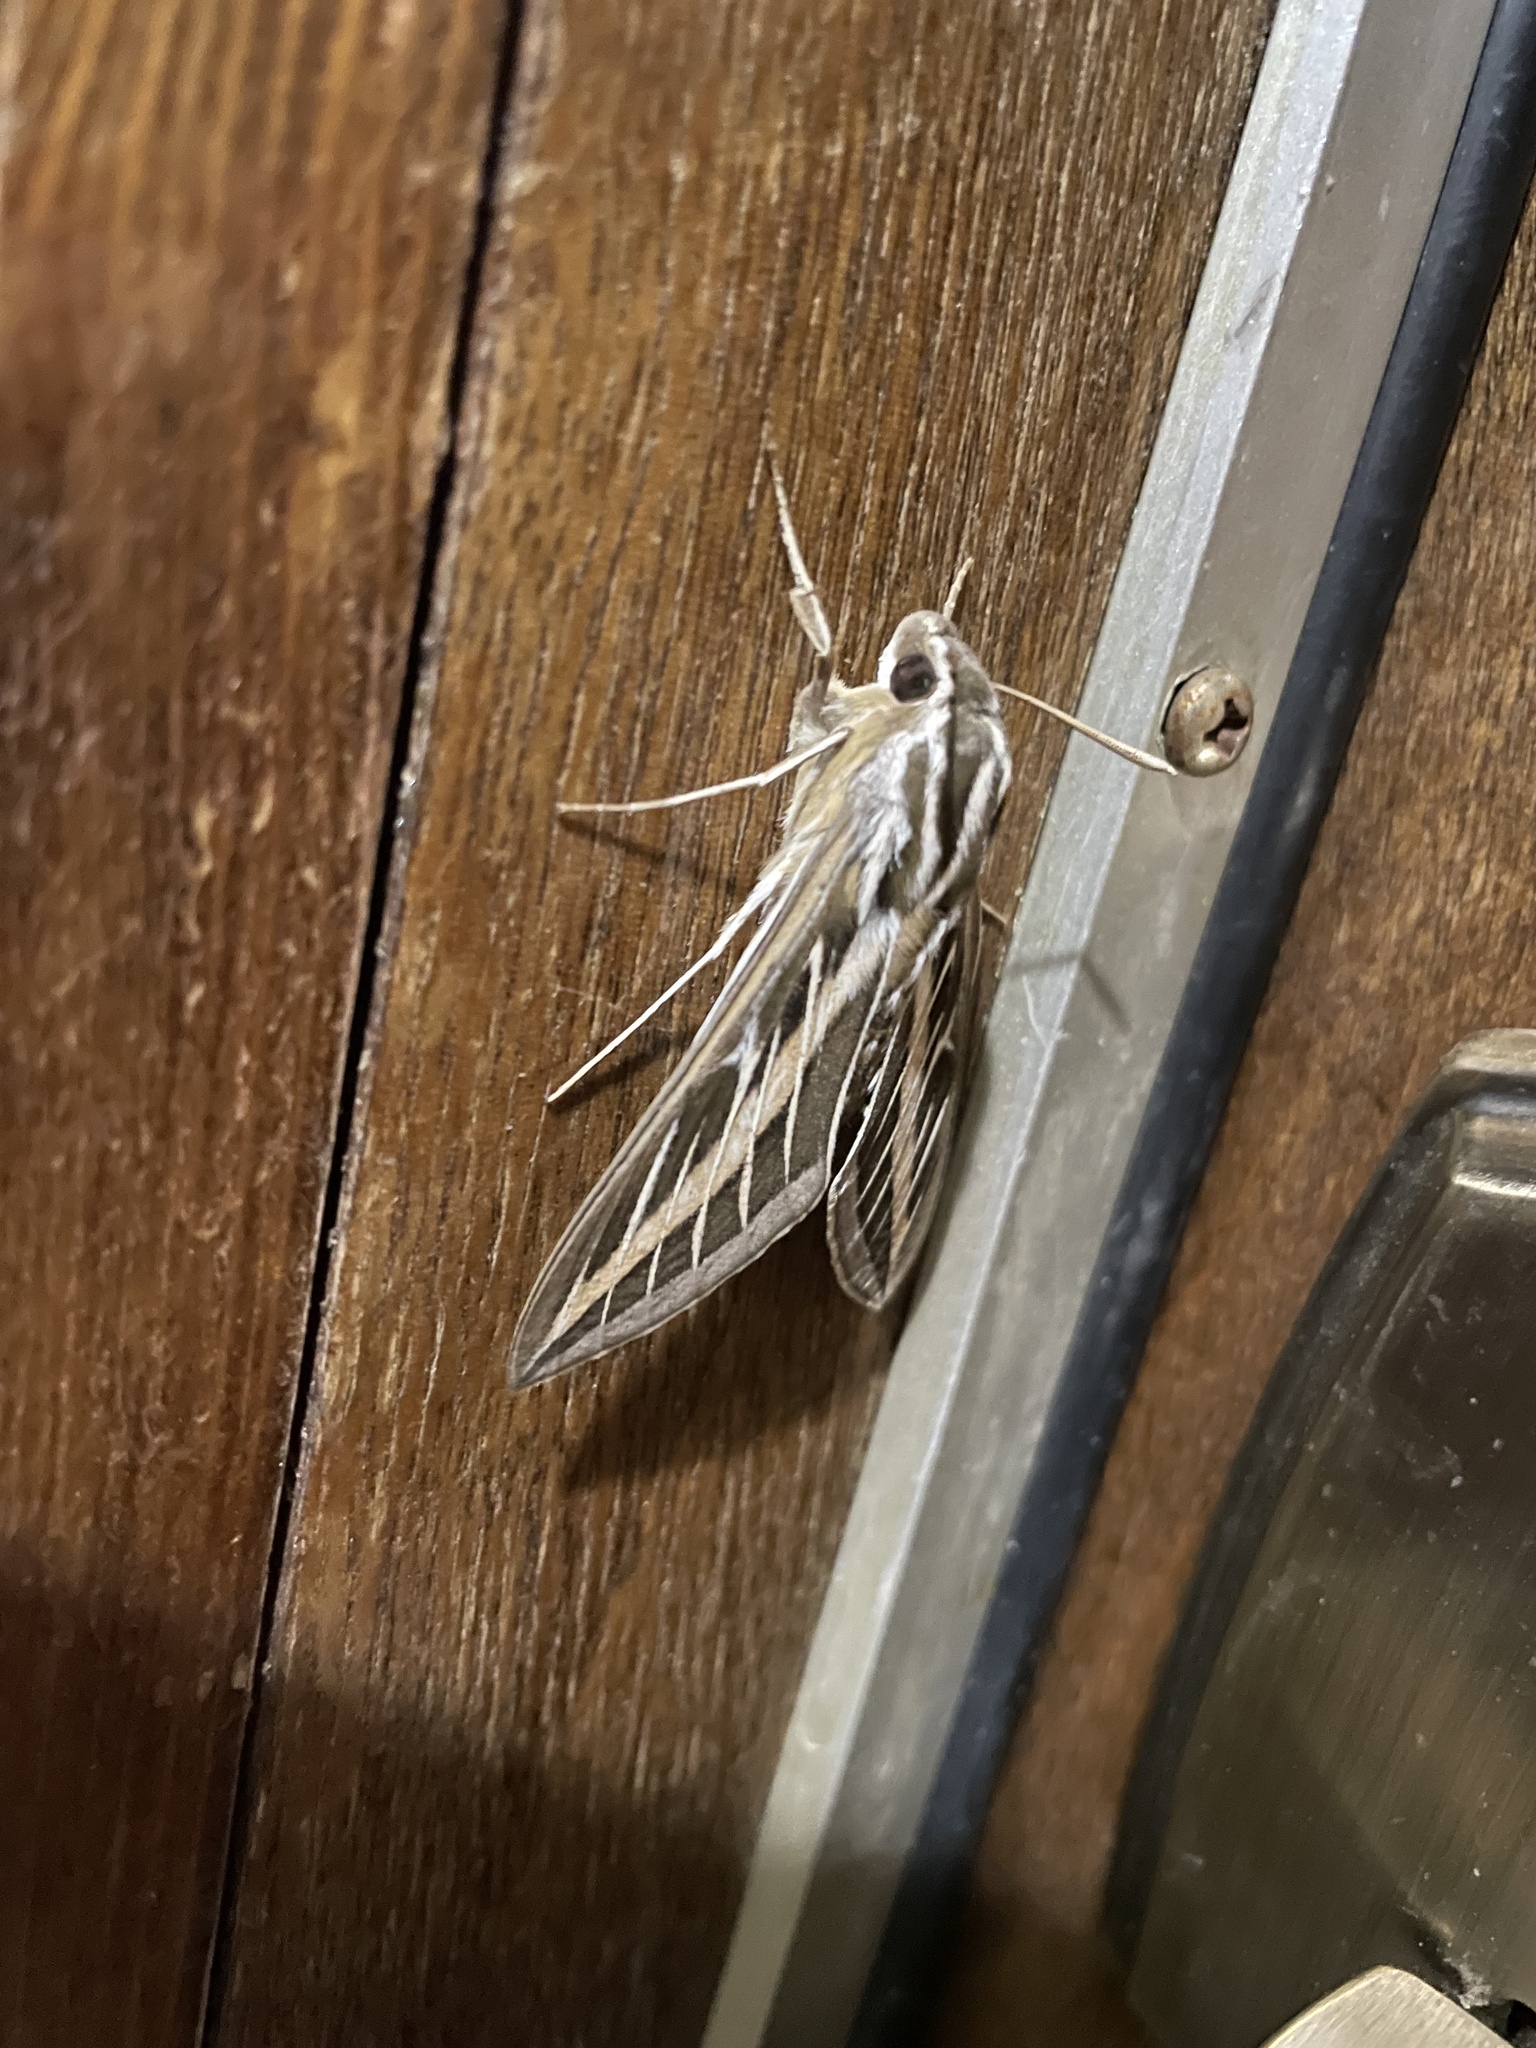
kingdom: Animalia
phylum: Arthropoda
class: Insecta
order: Lepidoptera
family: Sphingidae
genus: Hyles
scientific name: Hyles lineata
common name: White-lined sphinx
